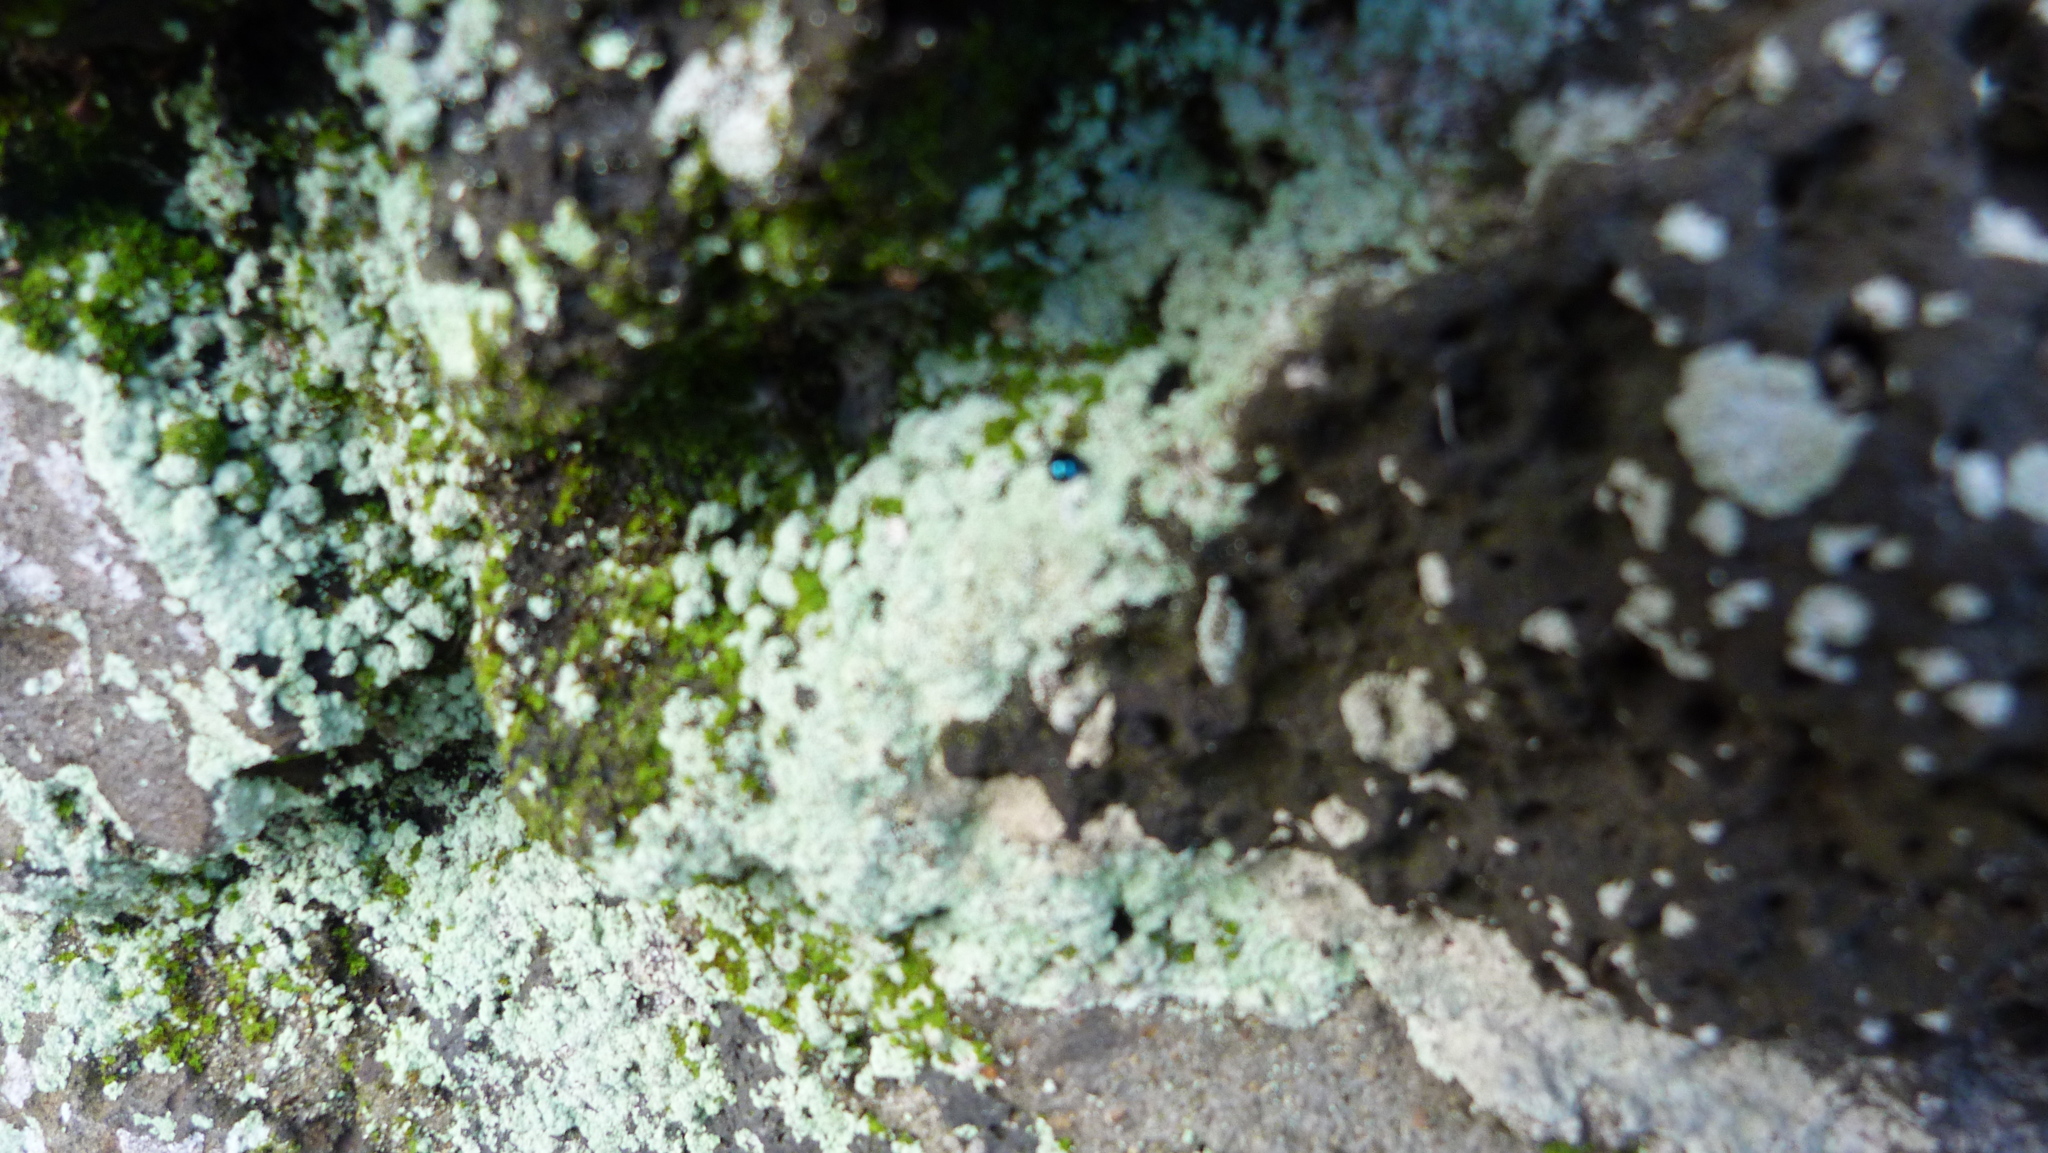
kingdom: Animalia
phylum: Arthropoda
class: Insecta
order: Coleoptera
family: Coccinellidae
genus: Halmus
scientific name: Halmus chalybeus
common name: Steel blue ladybird beetle
